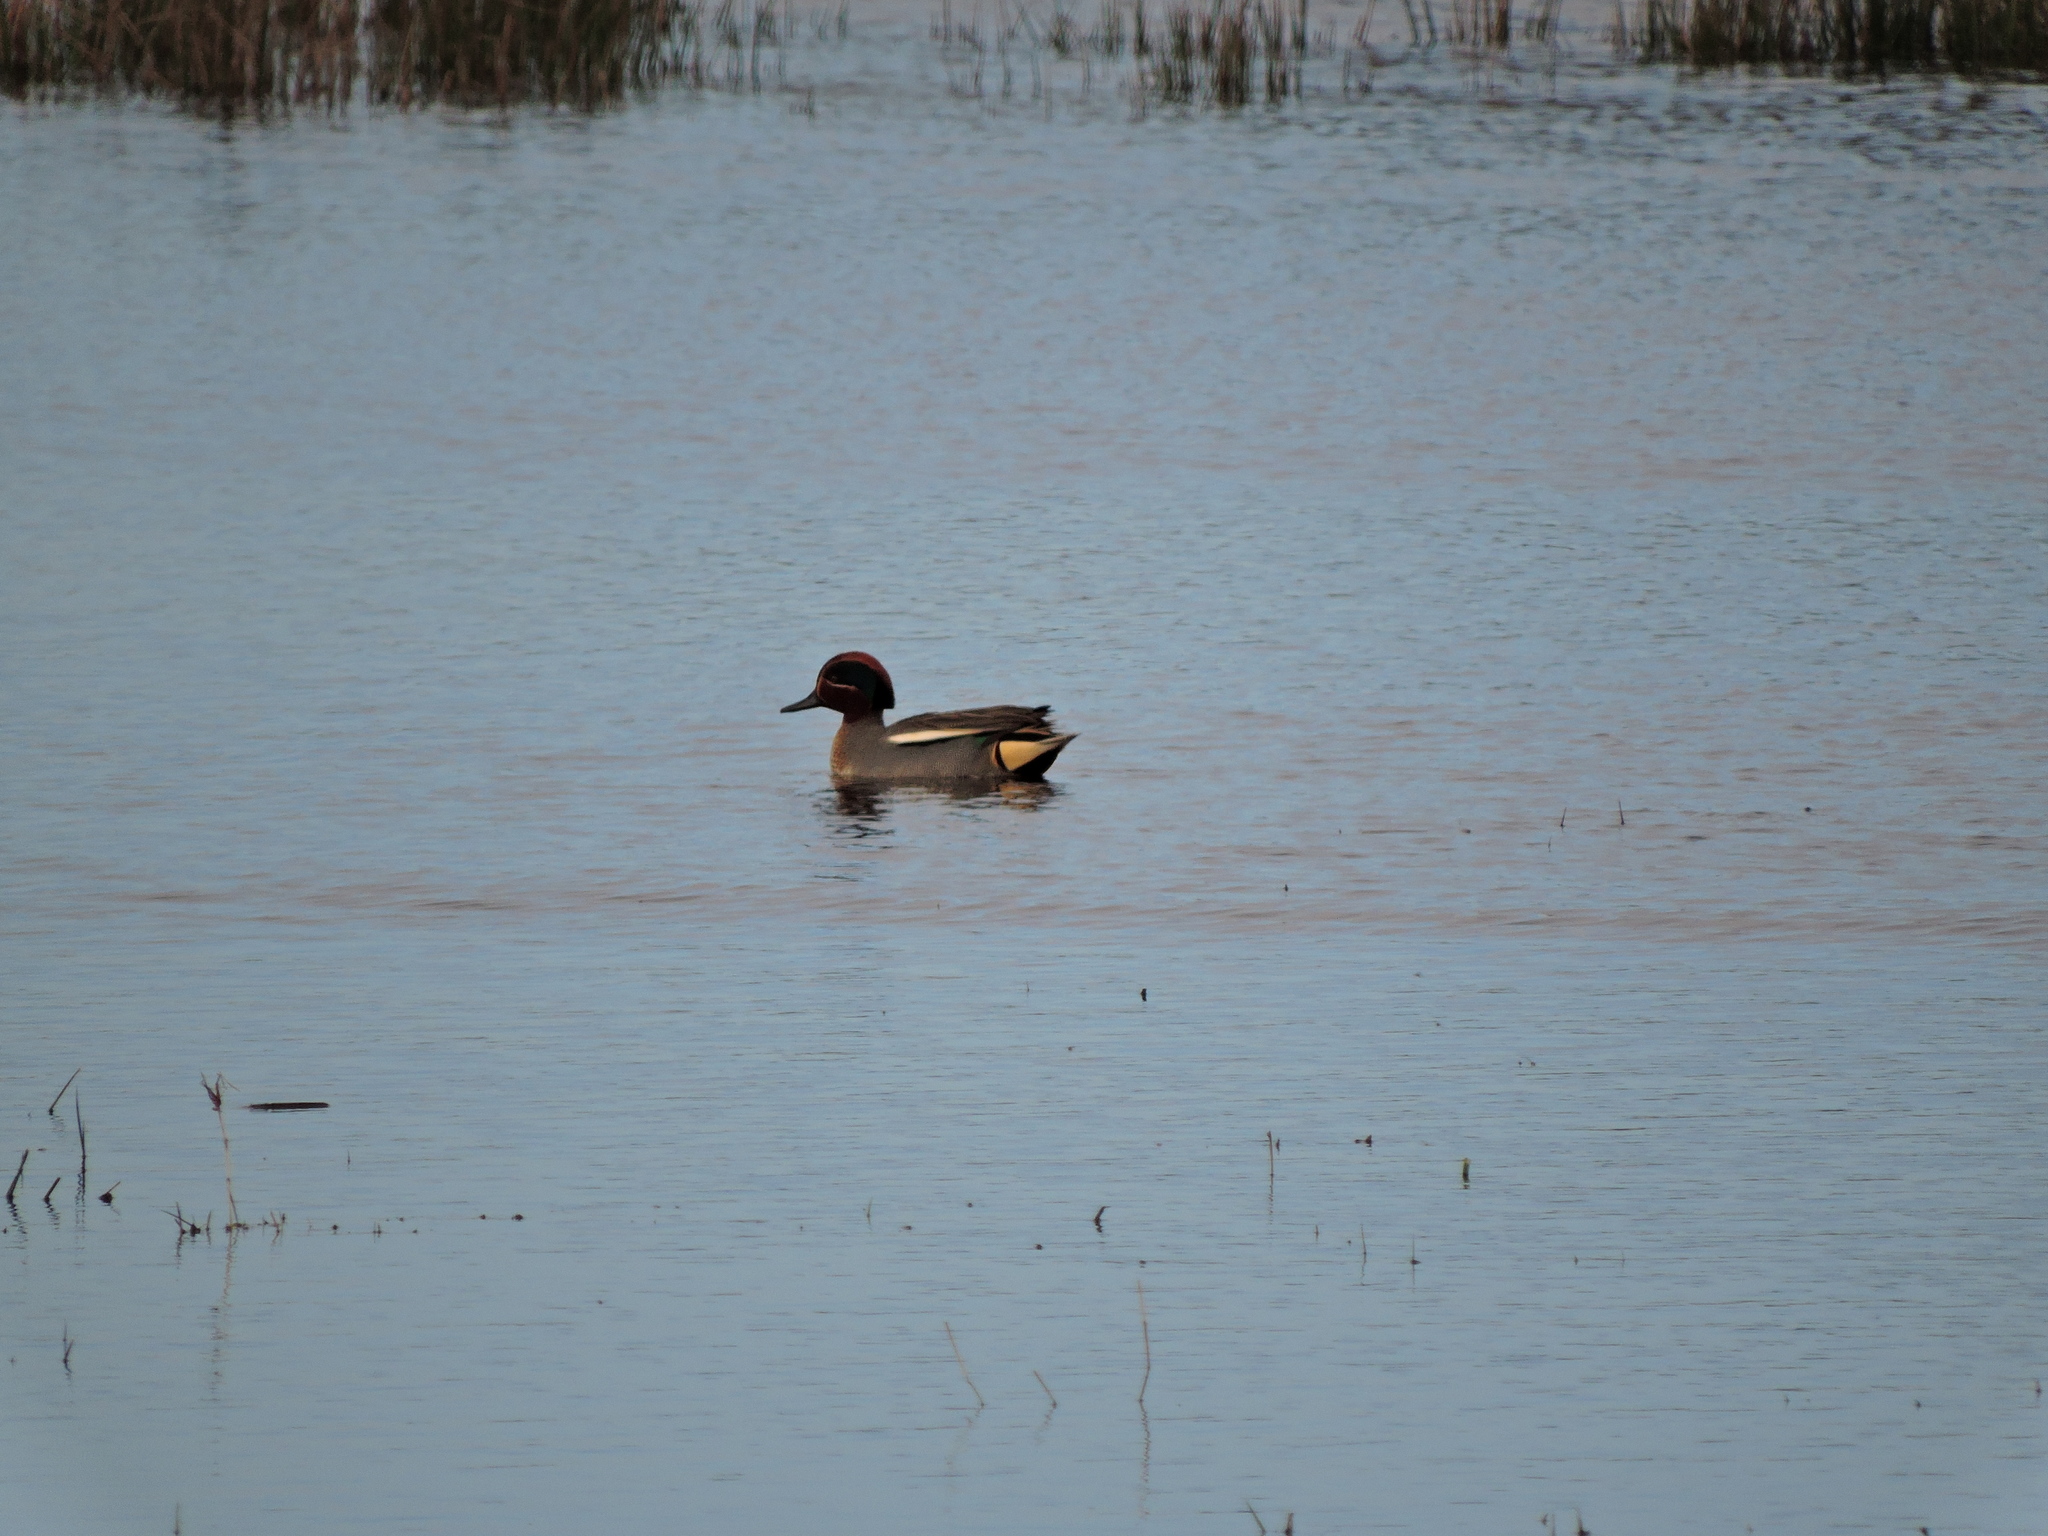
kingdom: Animalia
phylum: Chordata
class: Aves
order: Anseriformes
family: Anatidae
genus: Anas
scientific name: Anas crecca
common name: Eurasian teal
